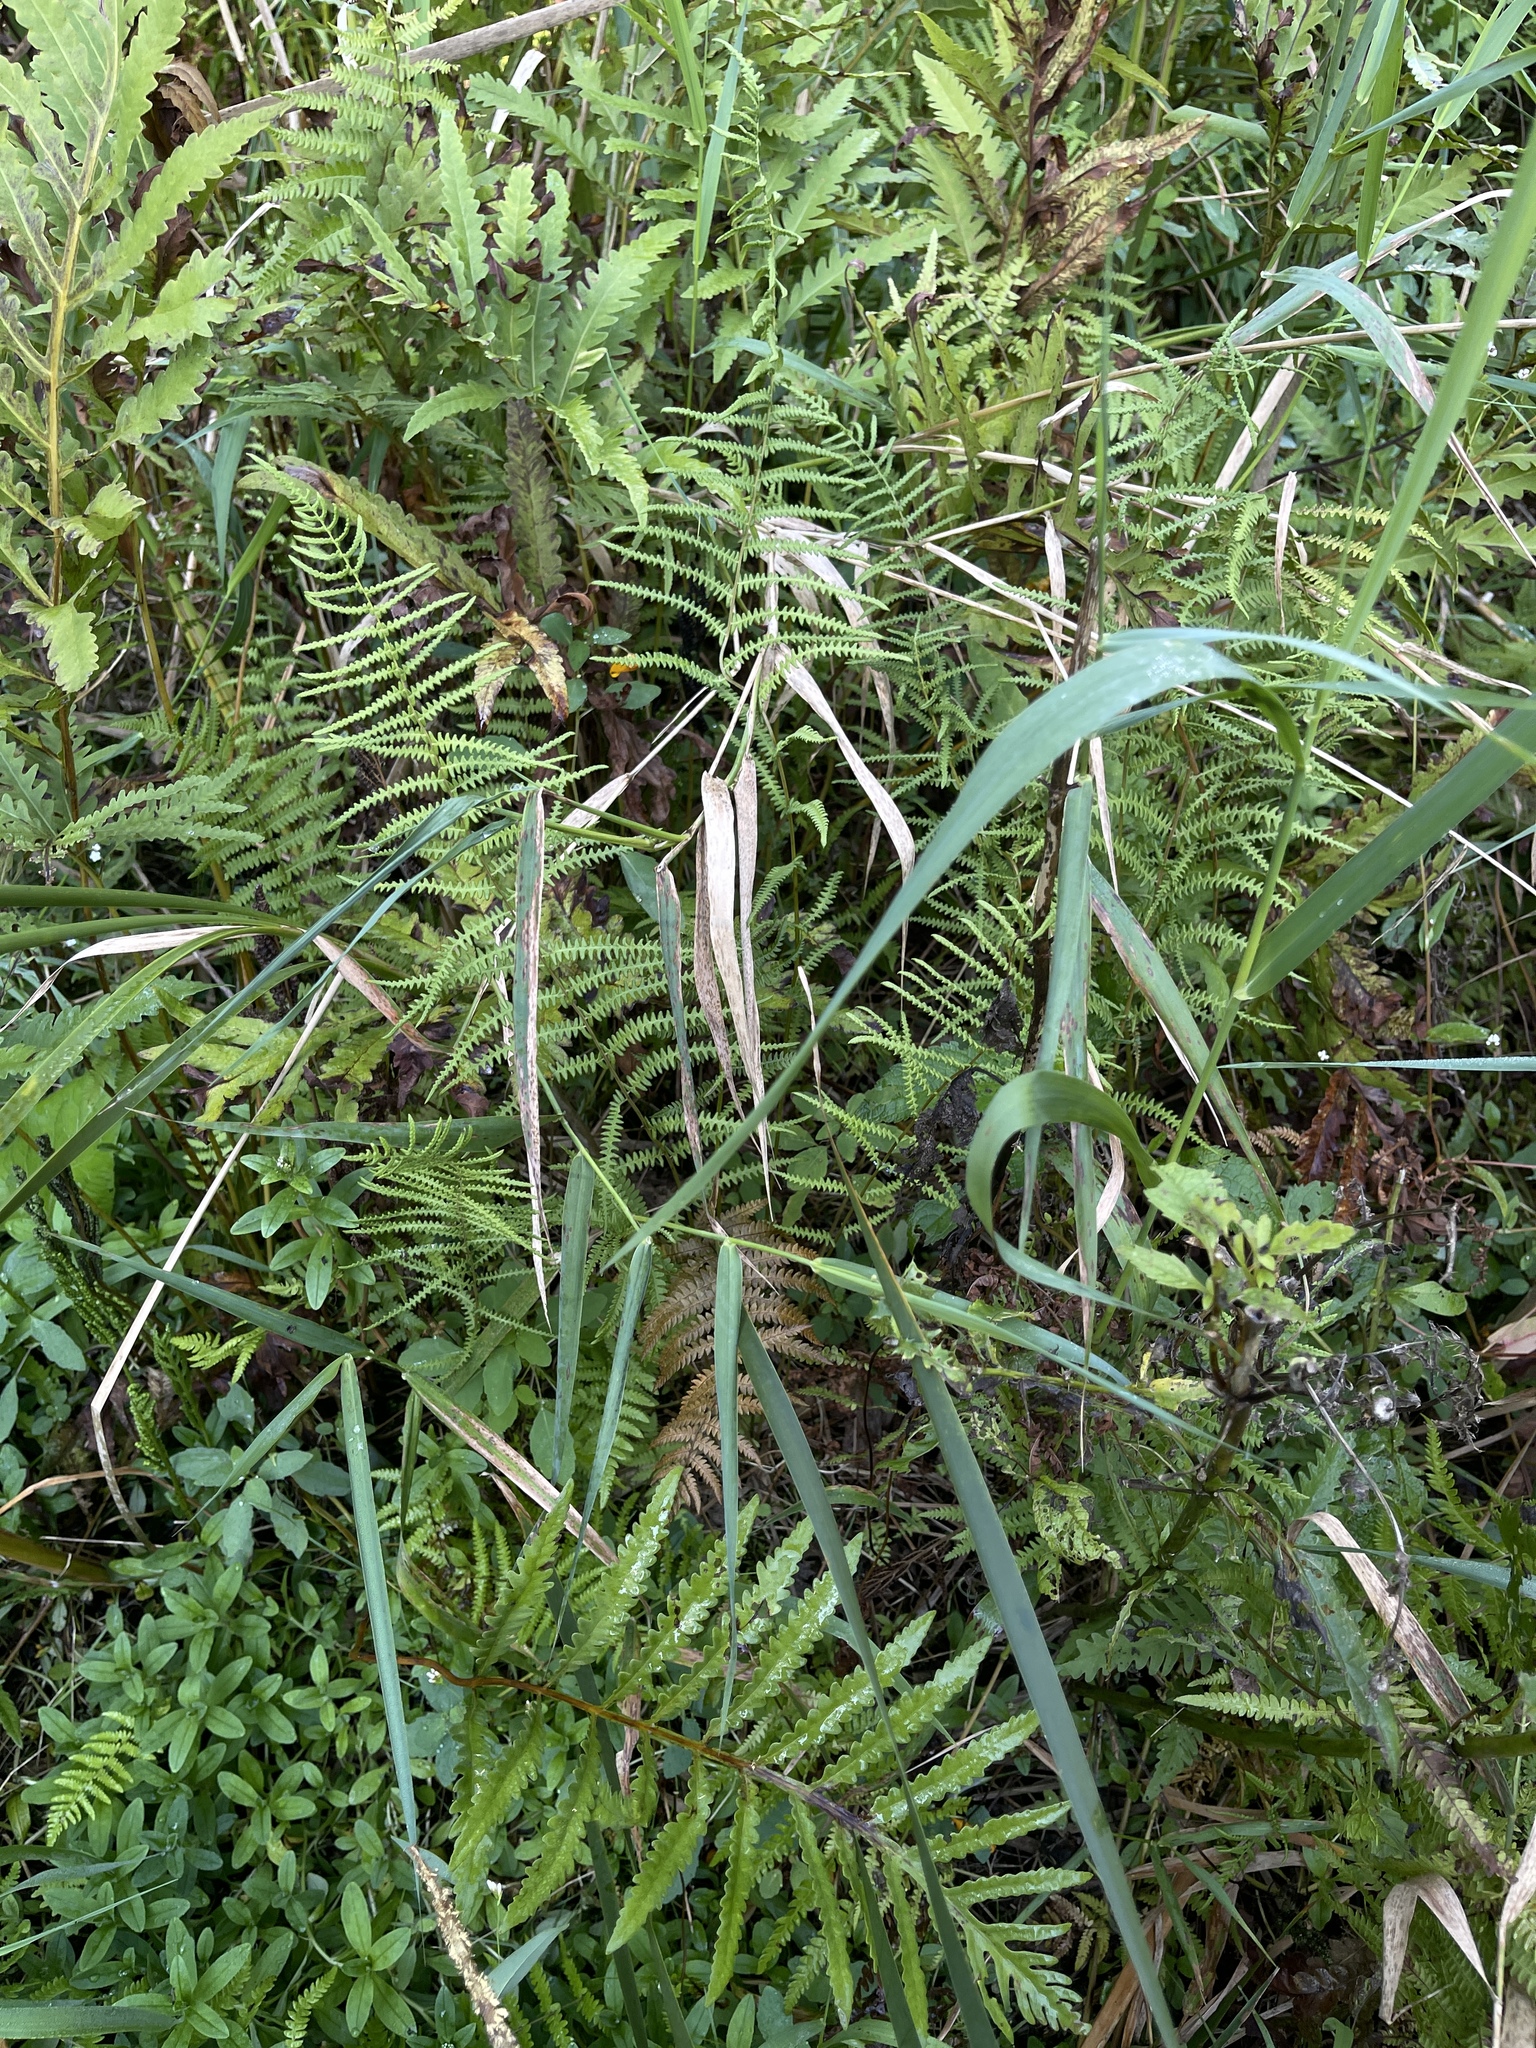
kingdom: Plantae
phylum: Tracheophyta
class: Polypodiopsida
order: Polypodiales
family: Thelypteridaceae
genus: Thelypteris
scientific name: Thelypteris palustris
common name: Marsh fern
